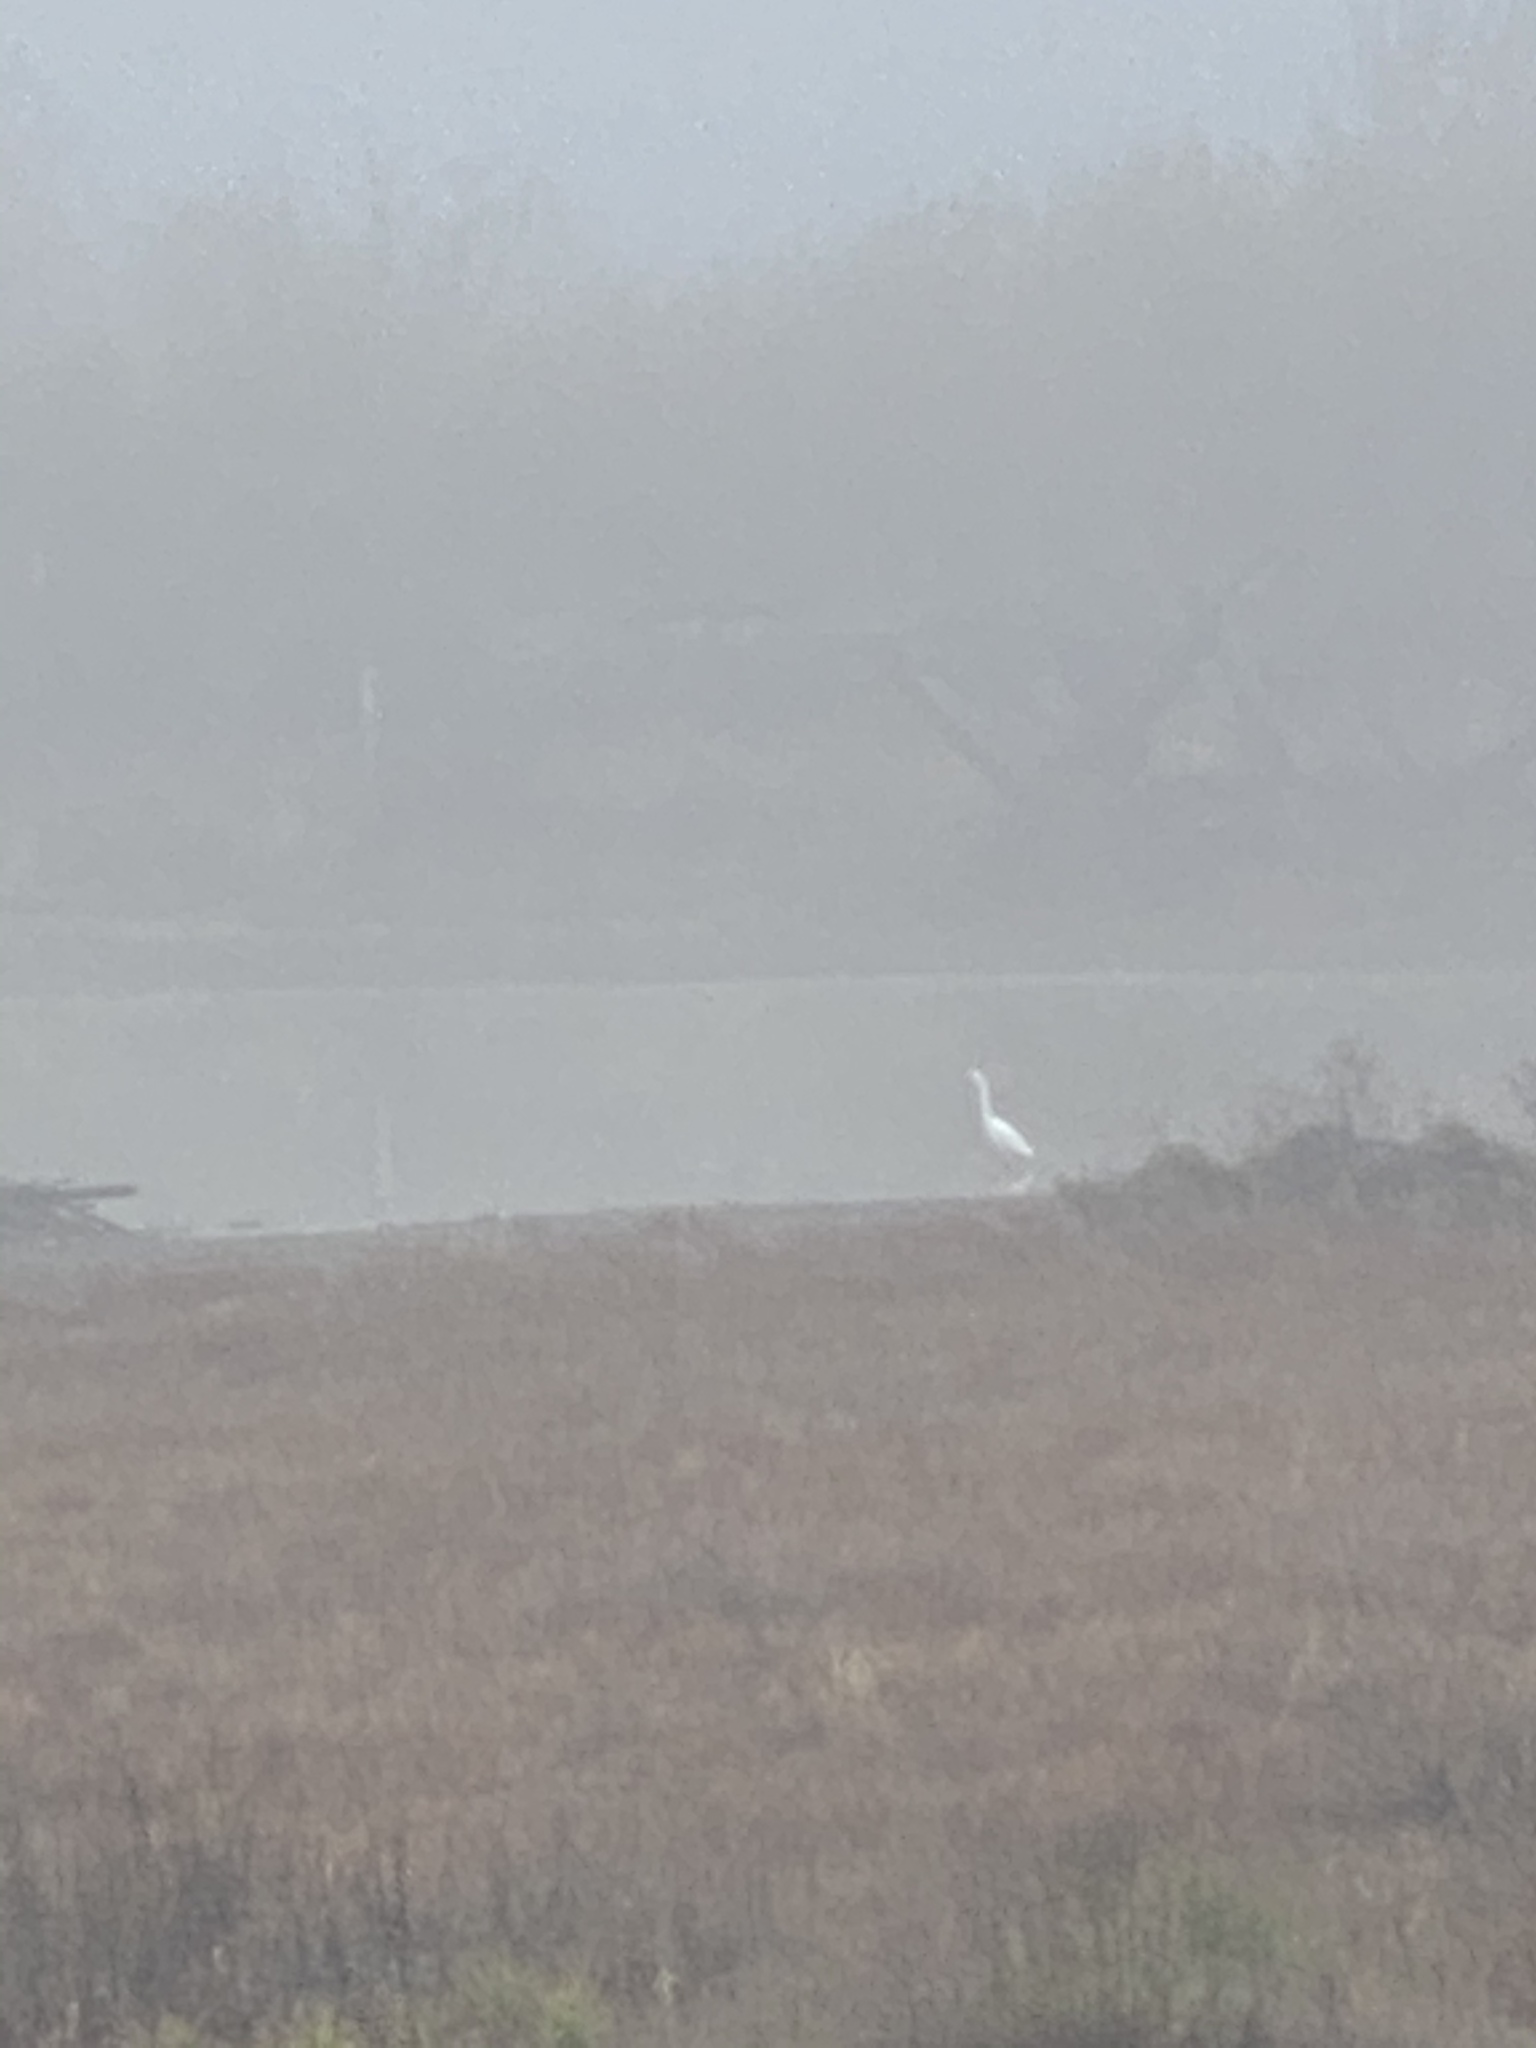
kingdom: Animalia
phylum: Chordata
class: Aves
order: Pelecaniformes
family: Ardeidae
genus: Ardea
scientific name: Ardea alba
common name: Great egret
